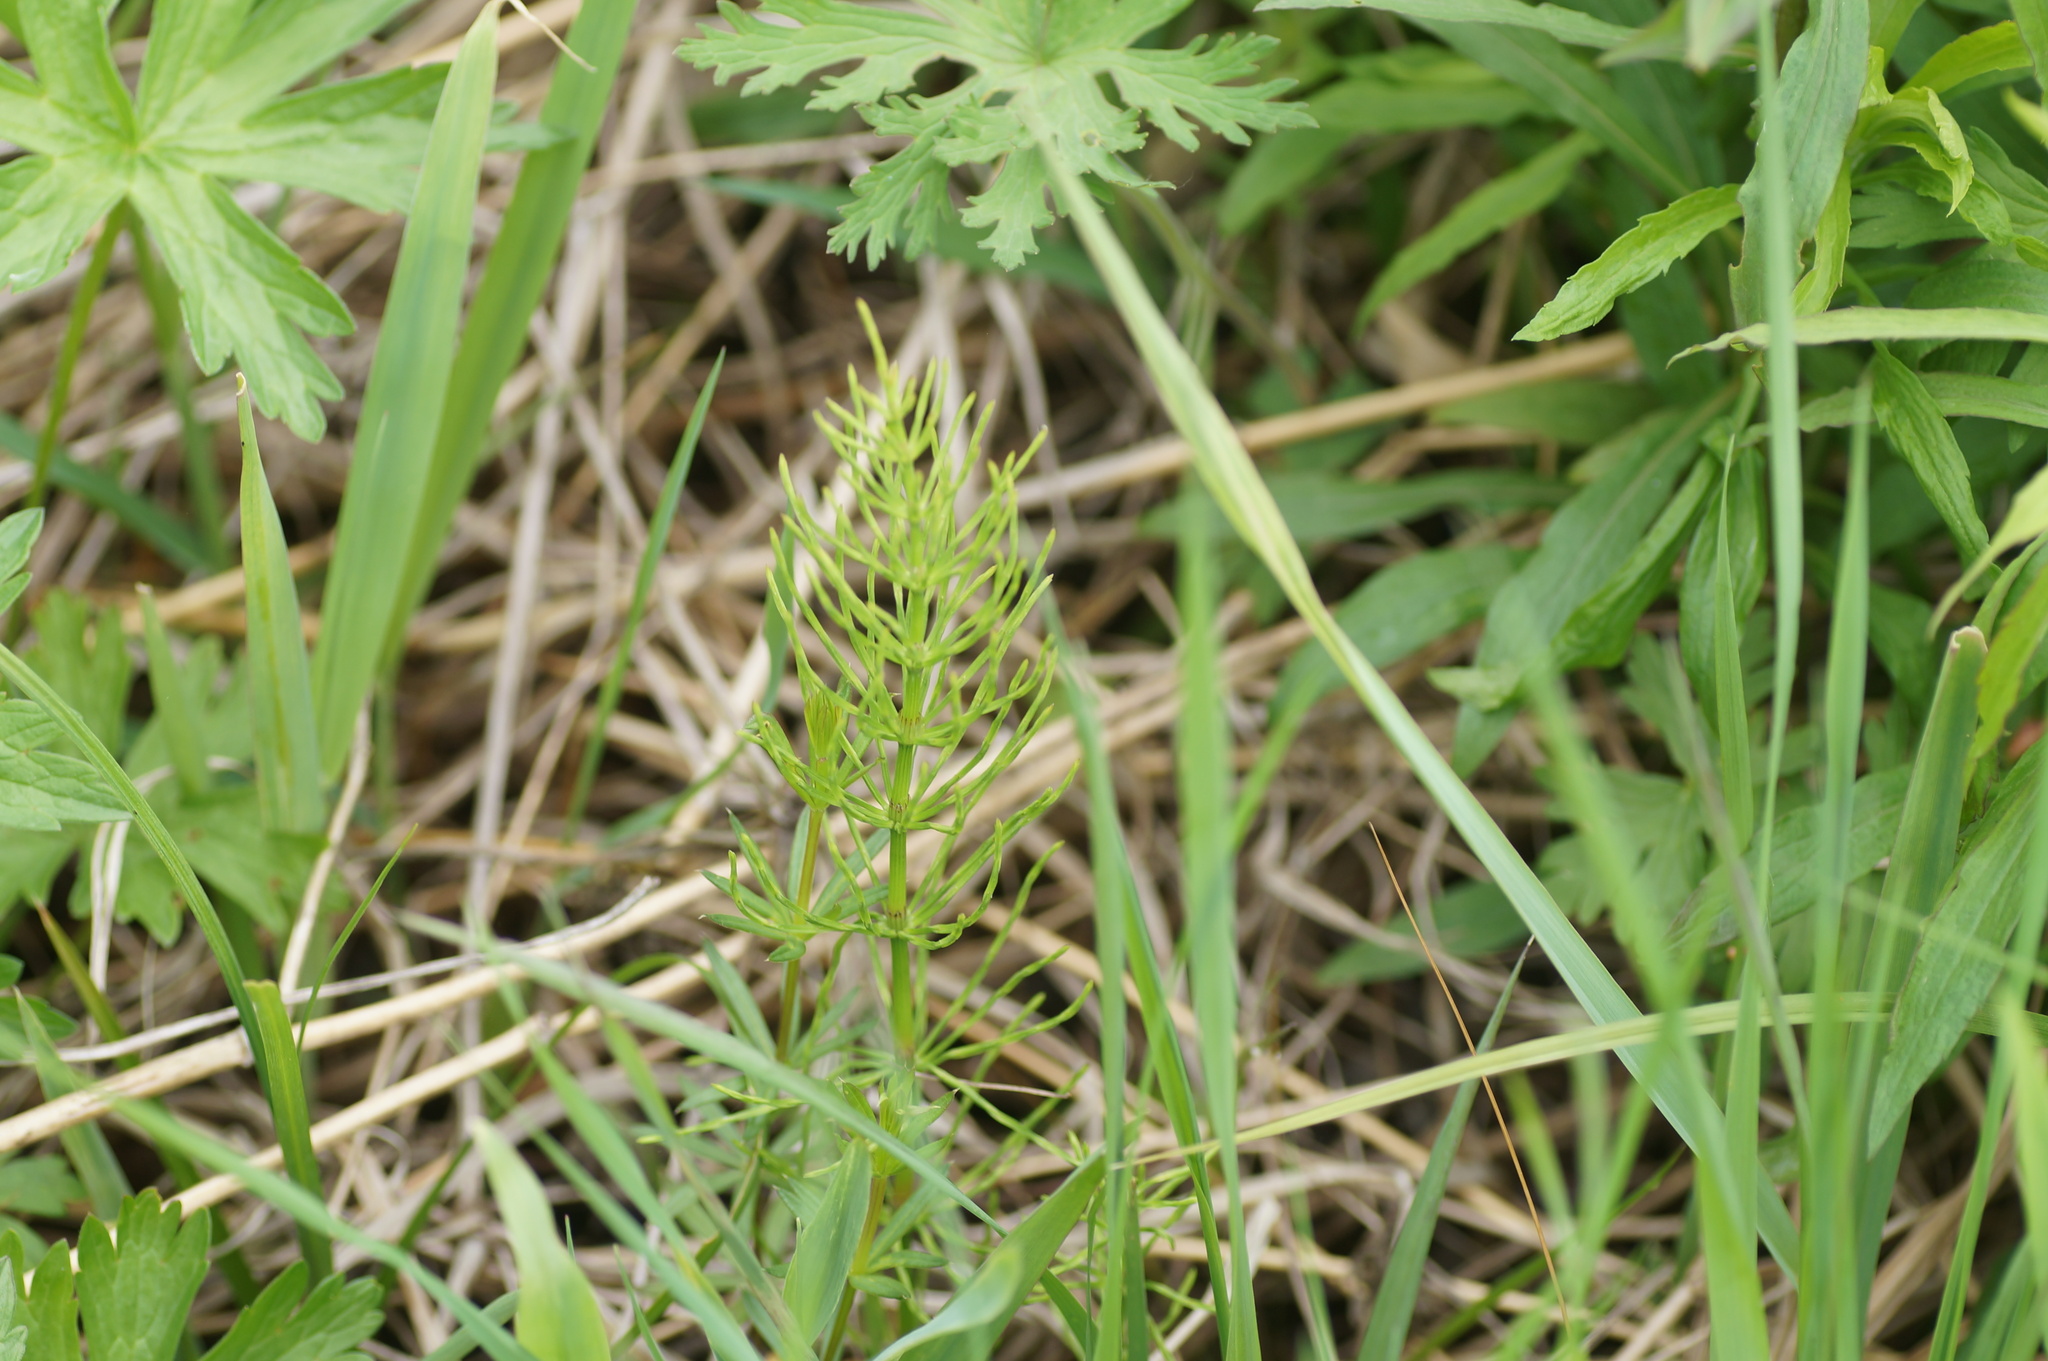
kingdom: Plantae
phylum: Tracheophyta
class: Polypodiopsida
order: Equisetales
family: Equisetaceae
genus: Equisetum
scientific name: Equisetum arvense
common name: Field horsetail
